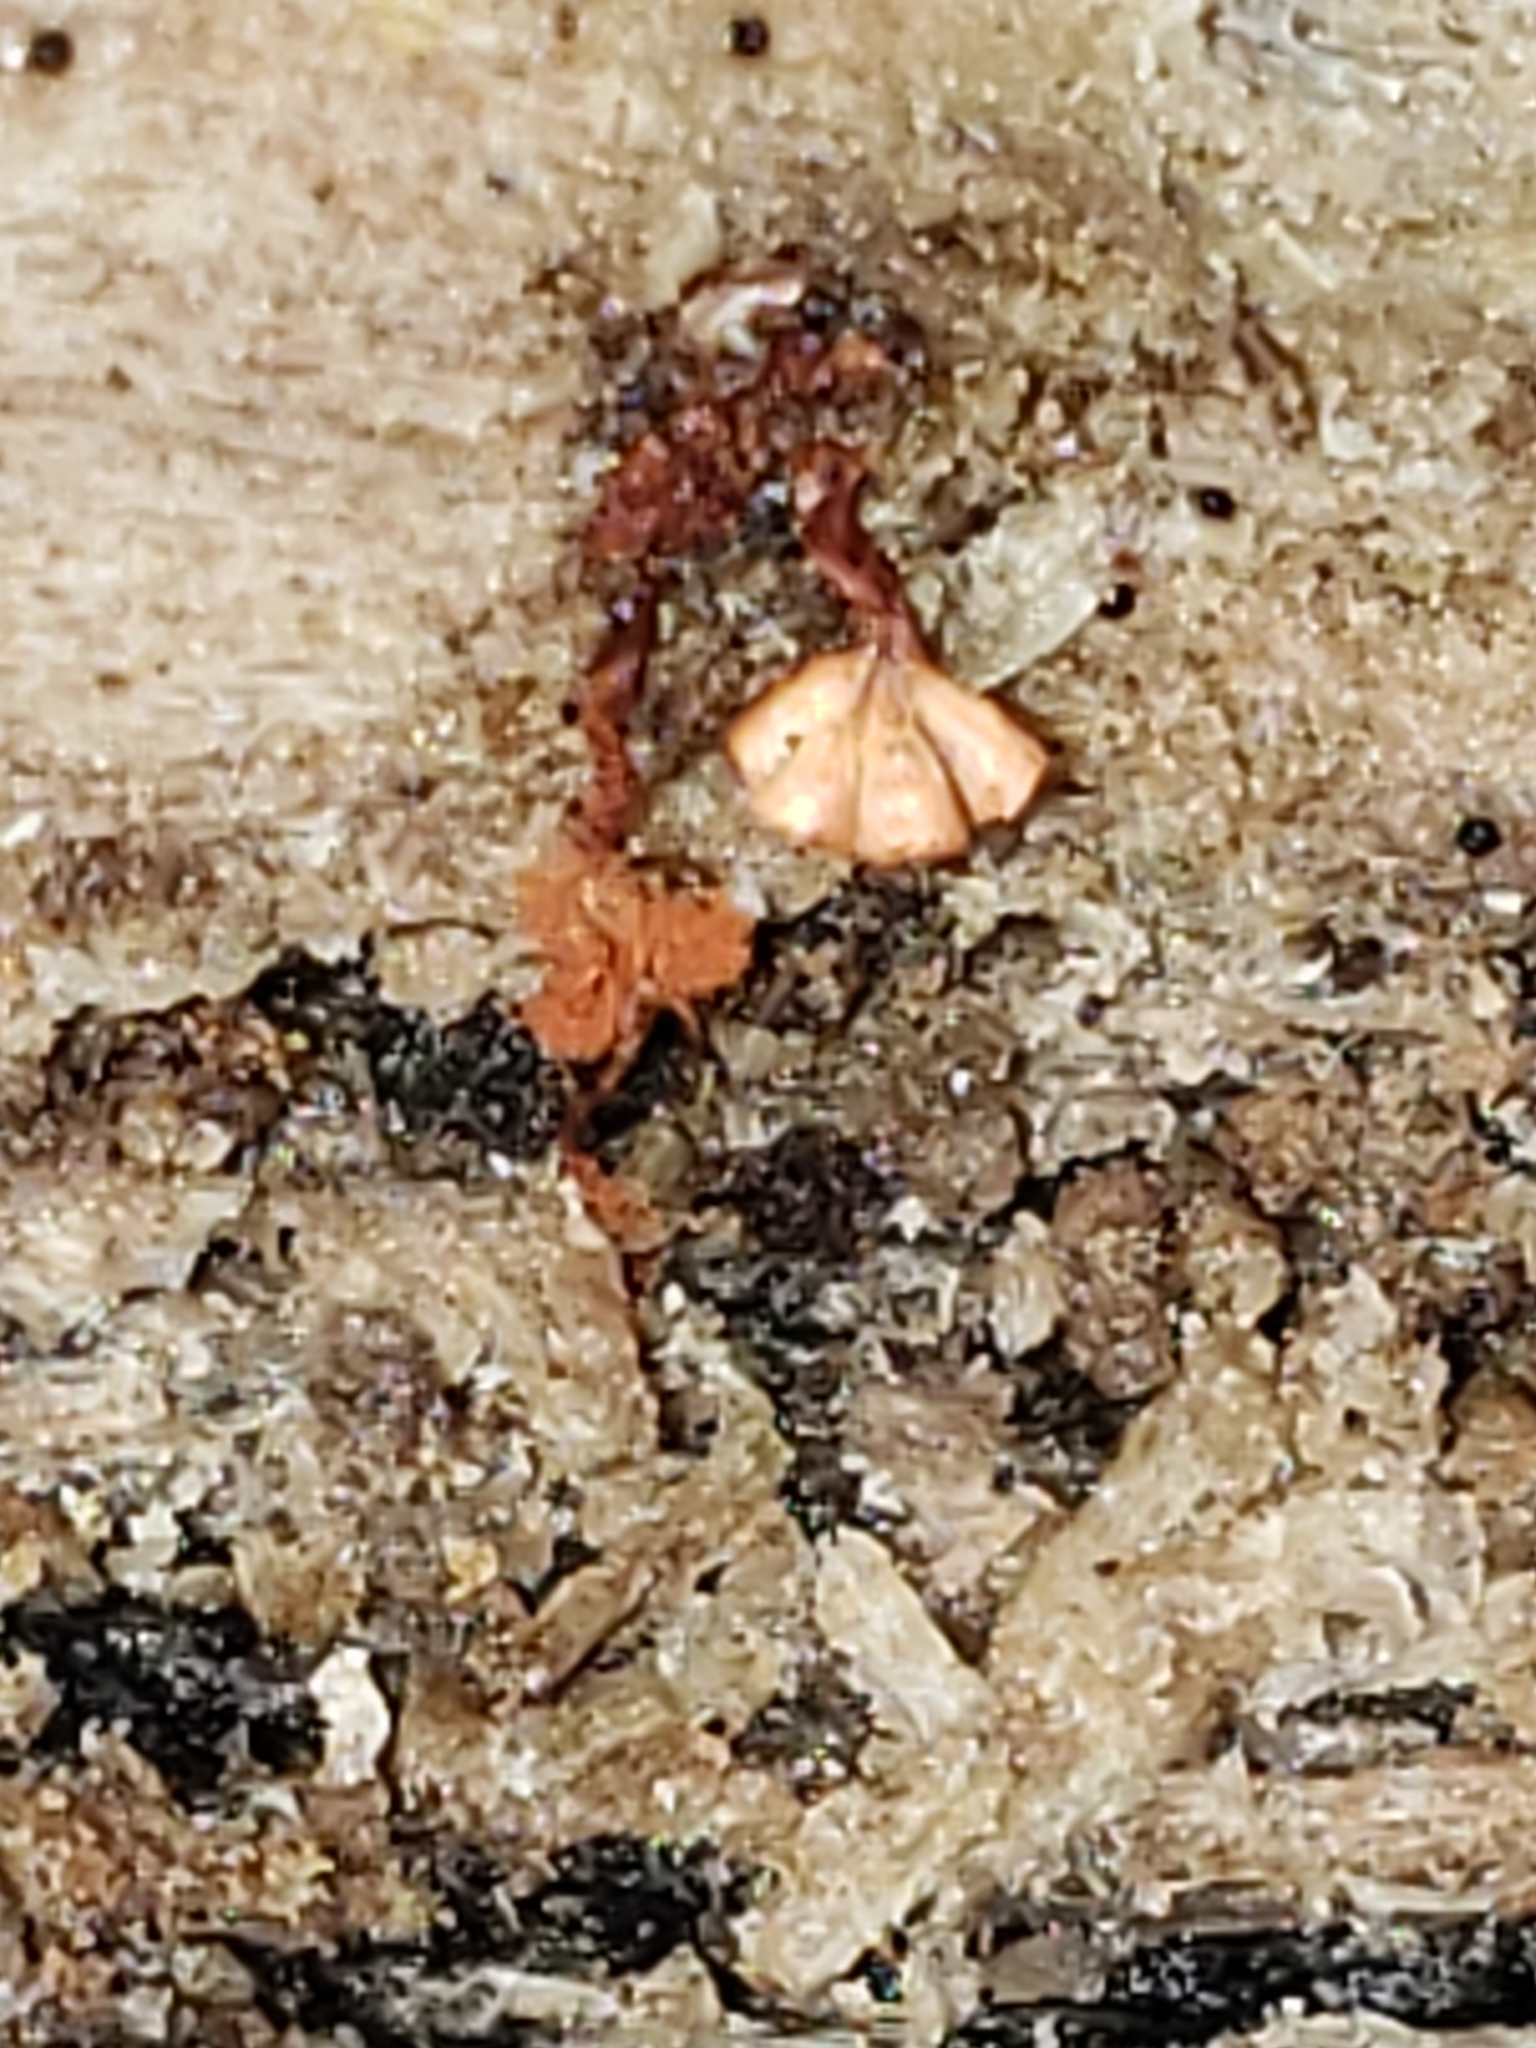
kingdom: Protozoa
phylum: Mycetozoa
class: Myxomycetes
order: Trichiales
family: Trichiaceae
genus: Metatrichia
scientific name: Metatrichia vesparia
